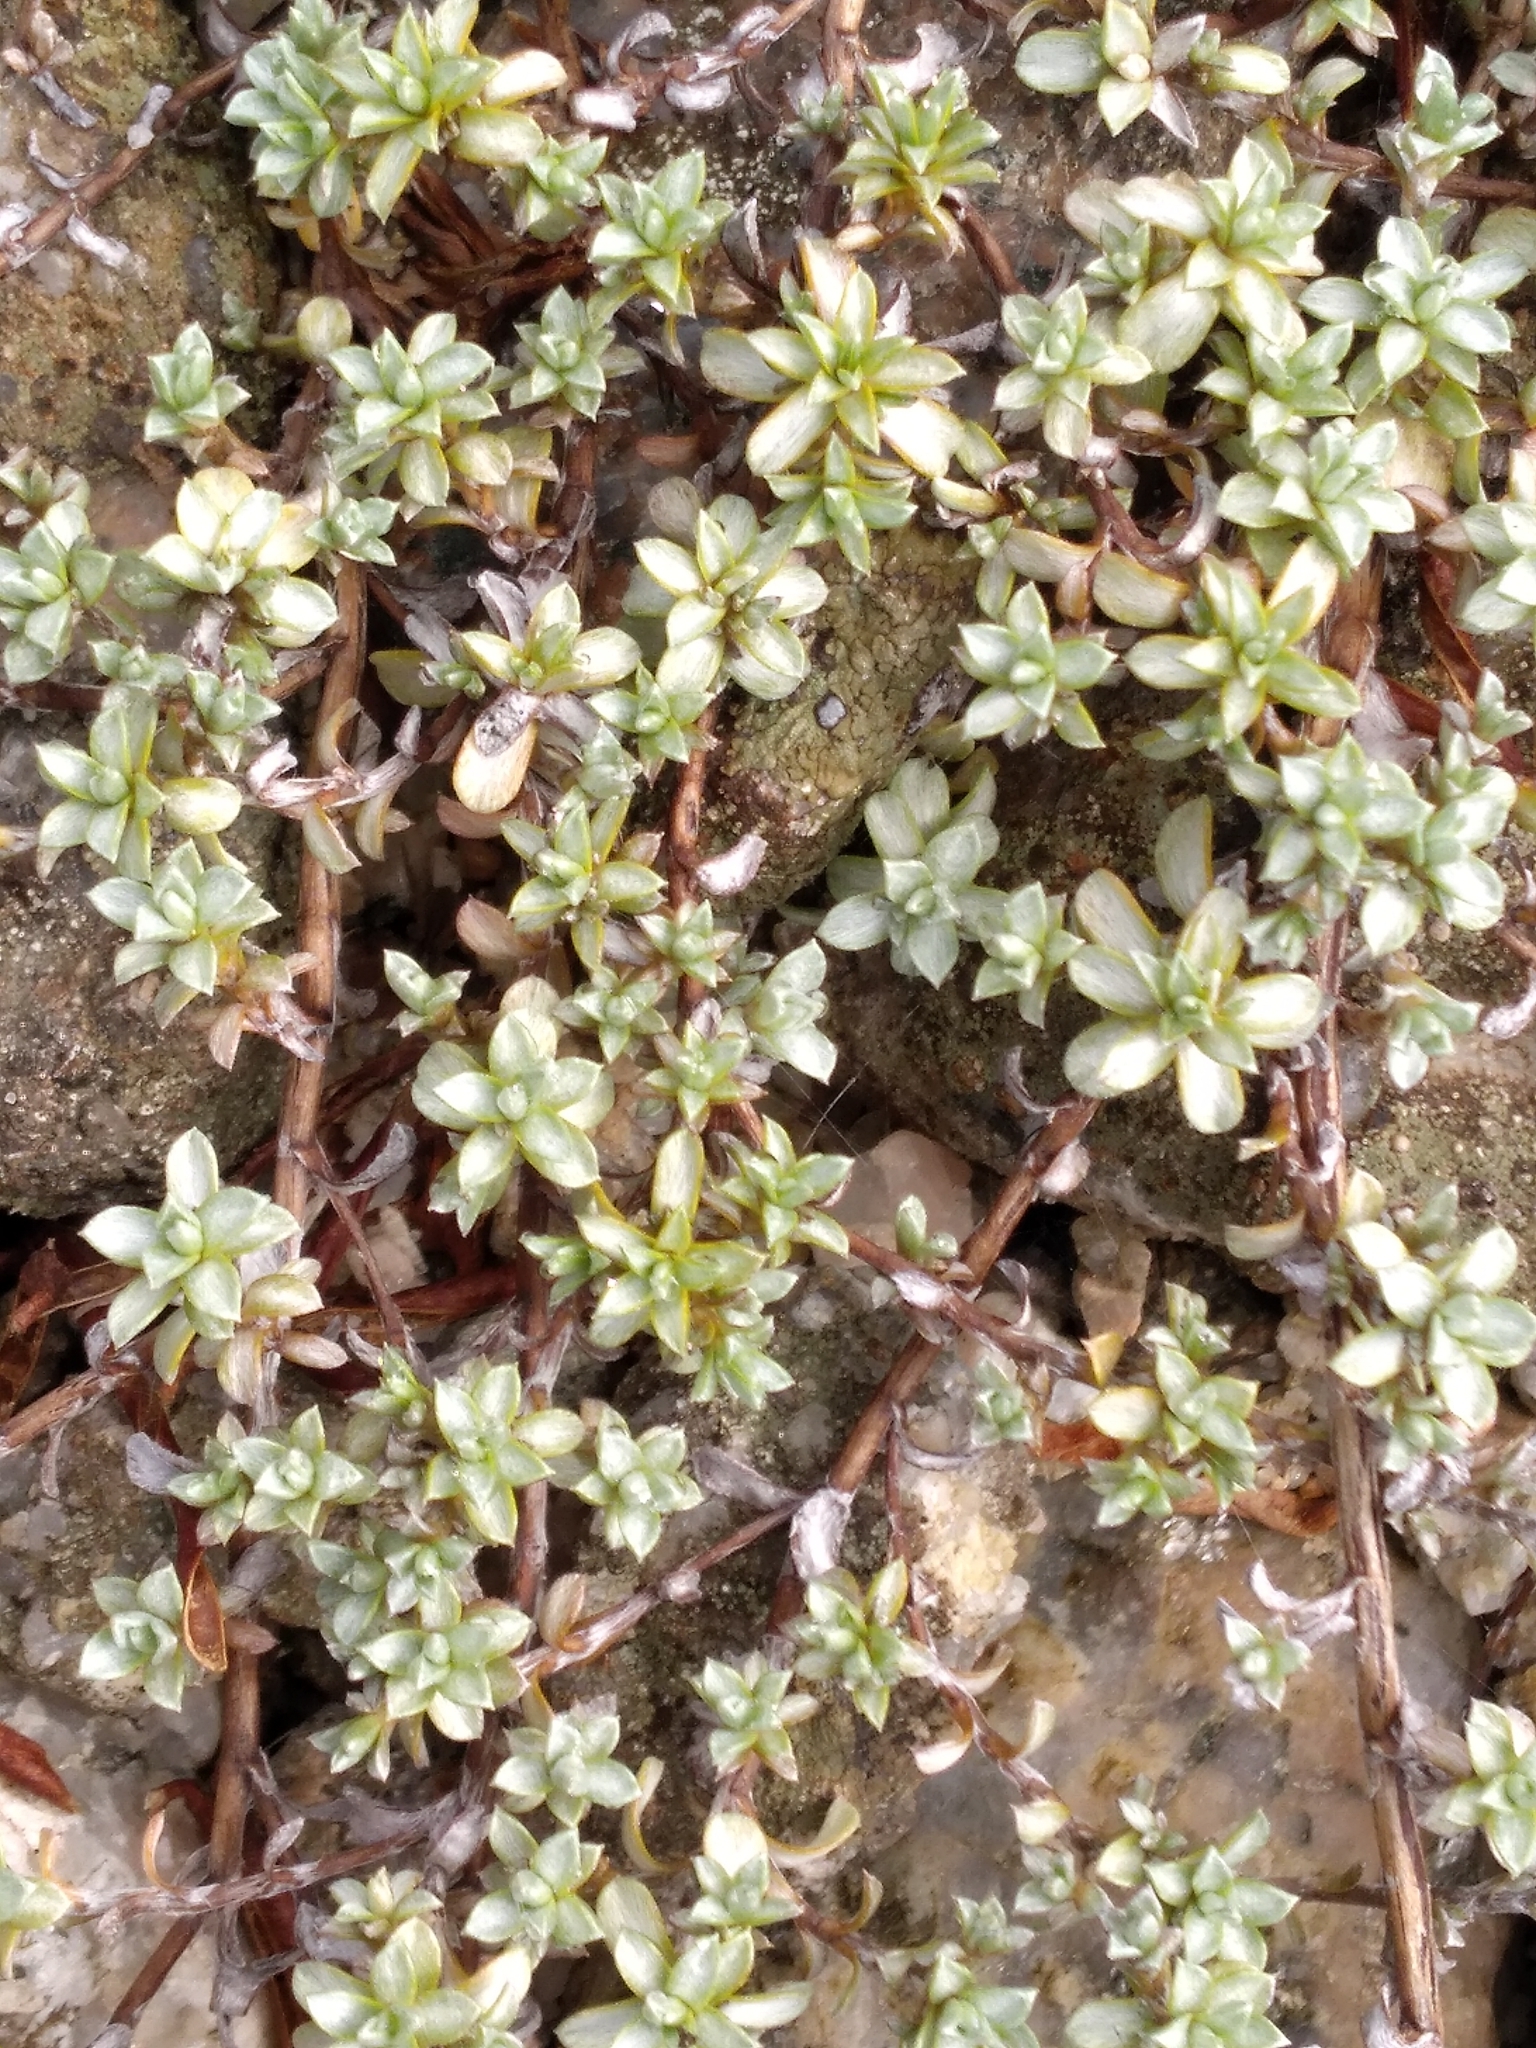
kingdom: Plantae
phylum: Tracheophyta
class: Magnoliopsida
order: Asterales
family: Asteraceae
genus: Raoulia
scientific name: Raoulia tenuicaulis
